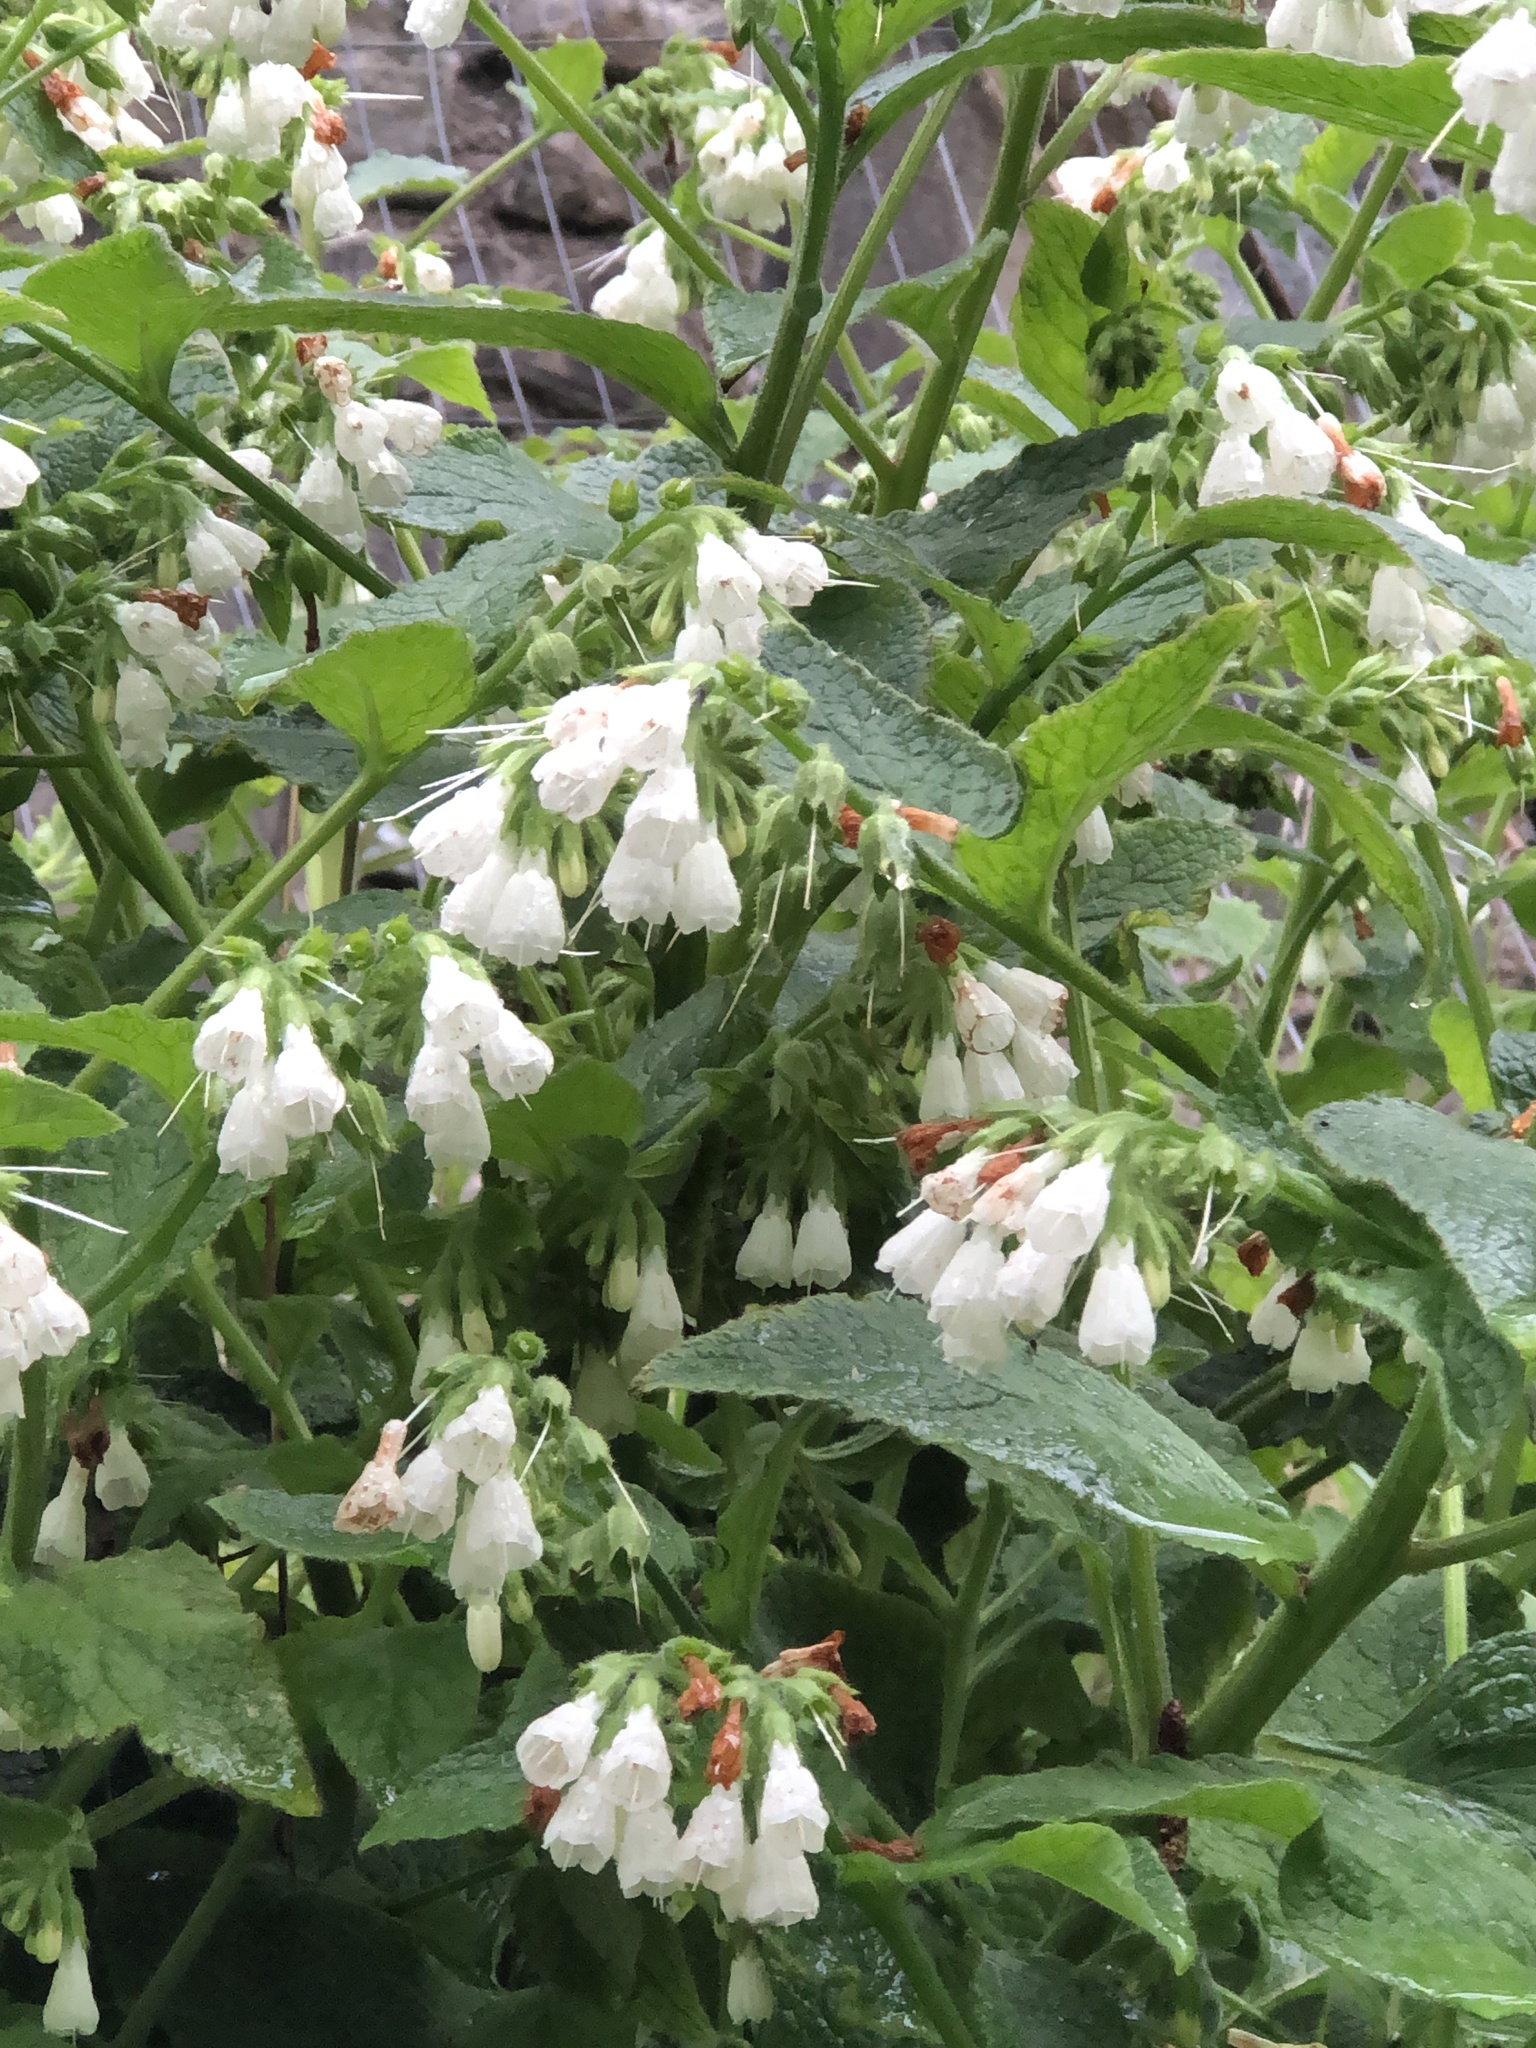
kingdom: Plantae
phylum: Tracheophyta
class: Magnoliopsida
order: Boraginales
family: Boraginaceae
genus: Symphytum
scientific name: Symphytum orientale
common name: White comfrey
